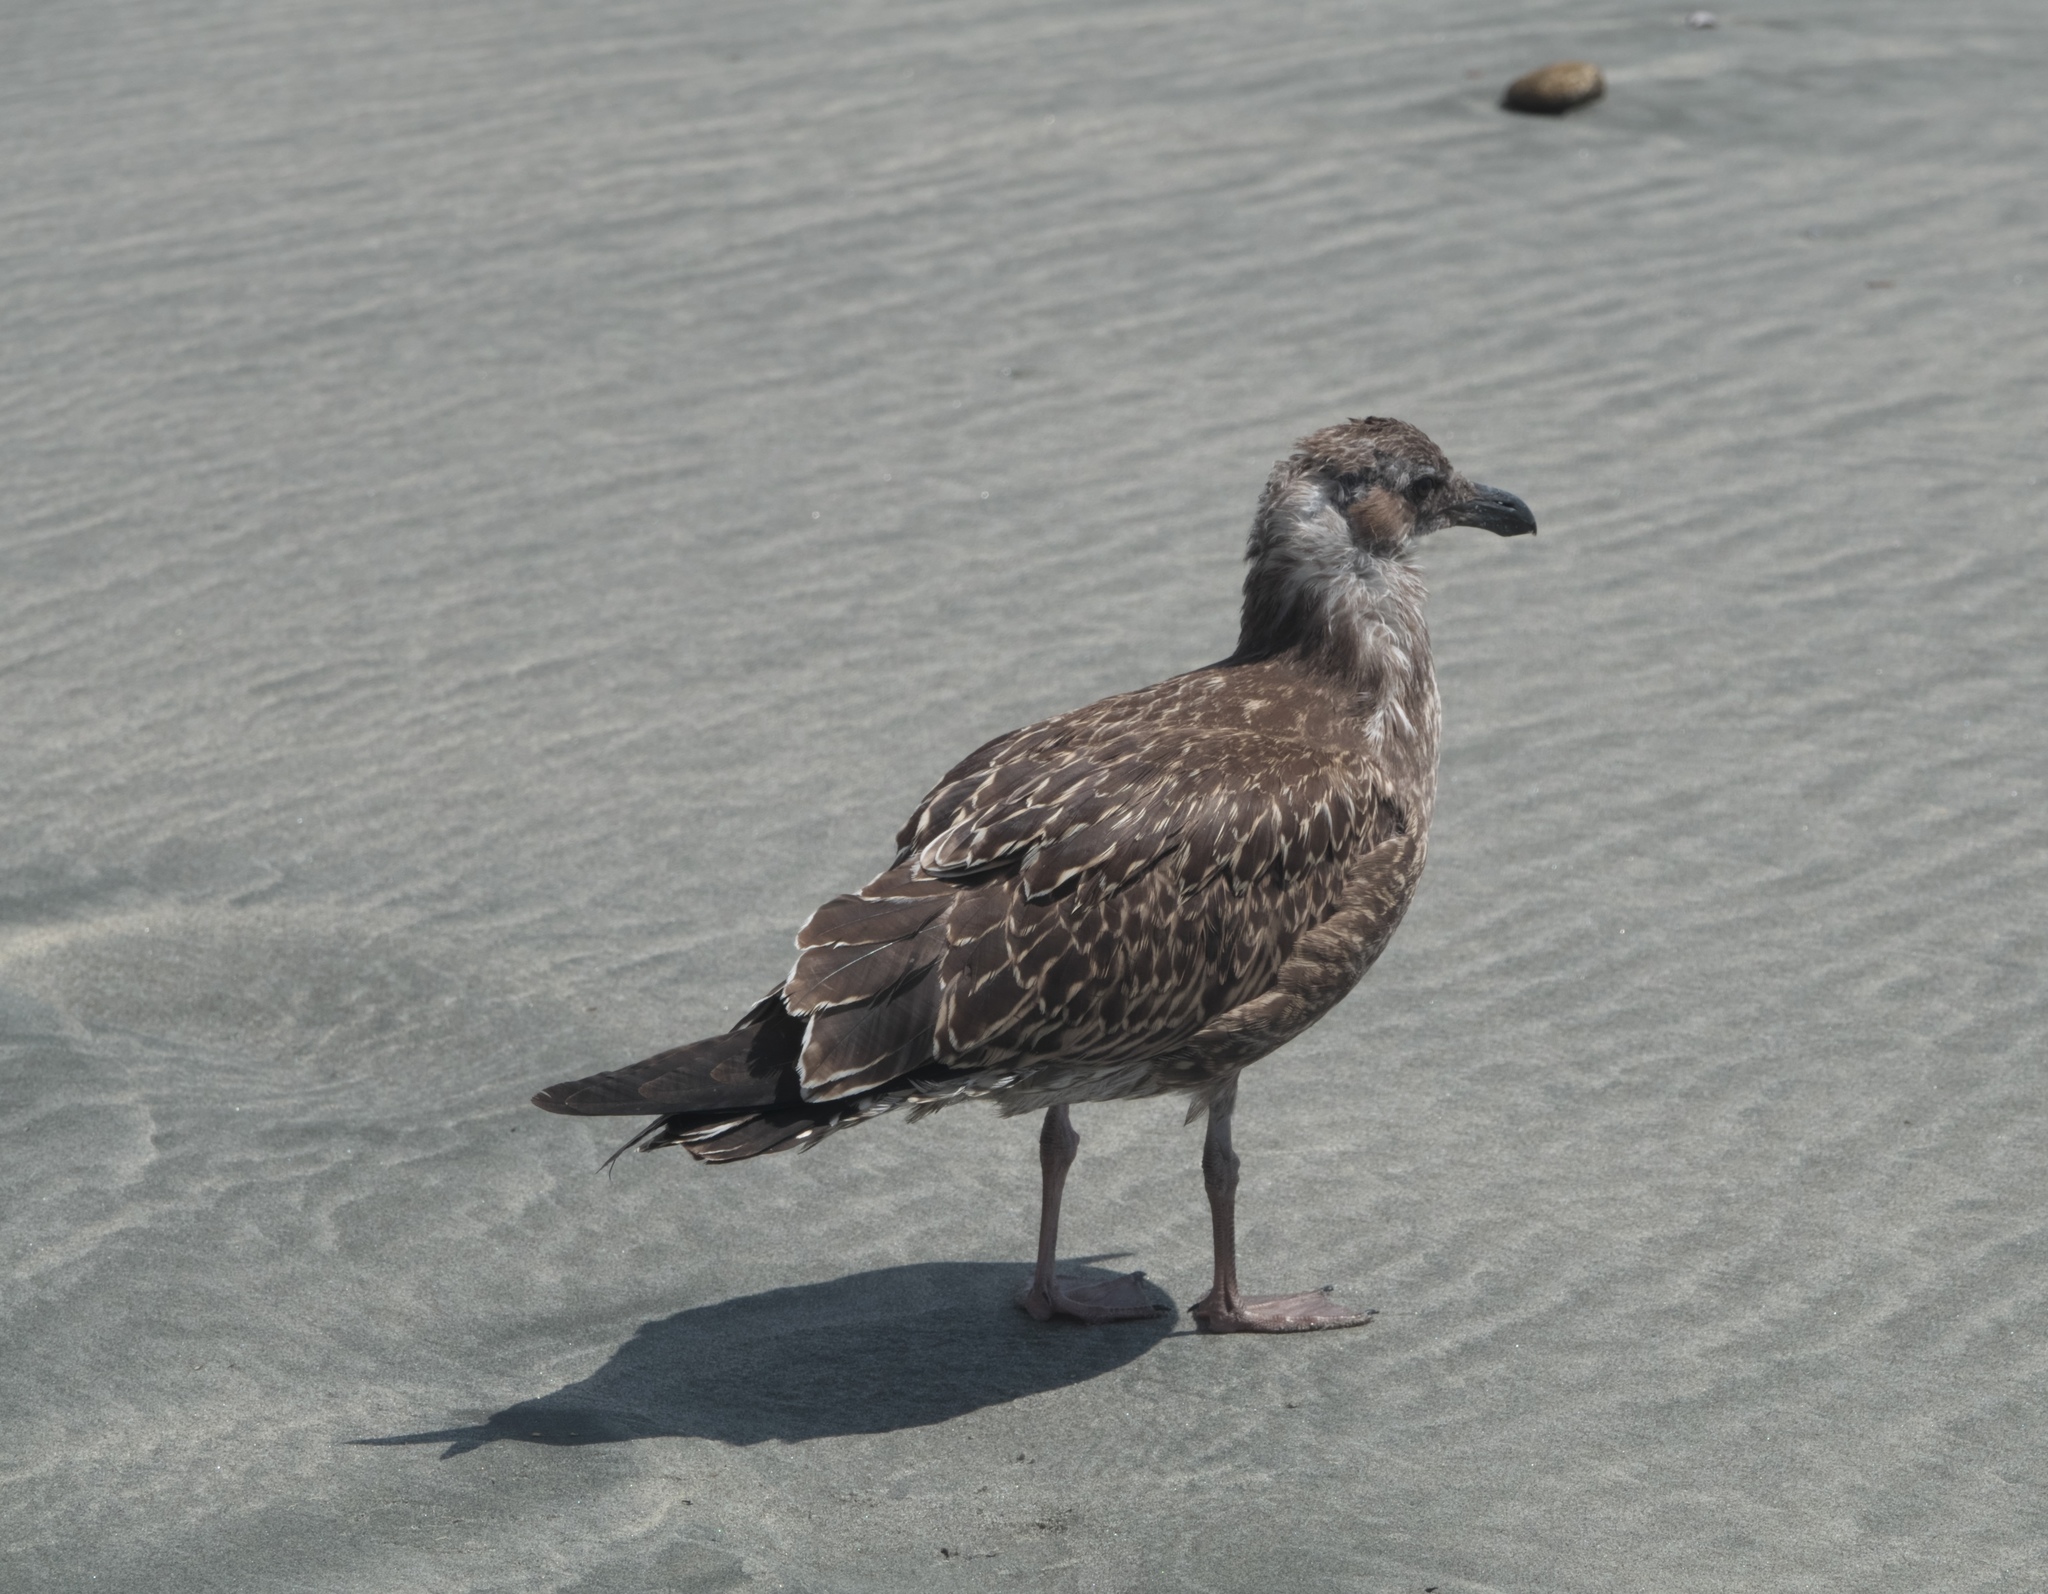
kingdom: Animalia
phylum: Chordata
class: Aves
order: Charadriiformes
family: Laridae
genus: Larus
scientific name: Larus dominicanus
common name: Kelp gull
